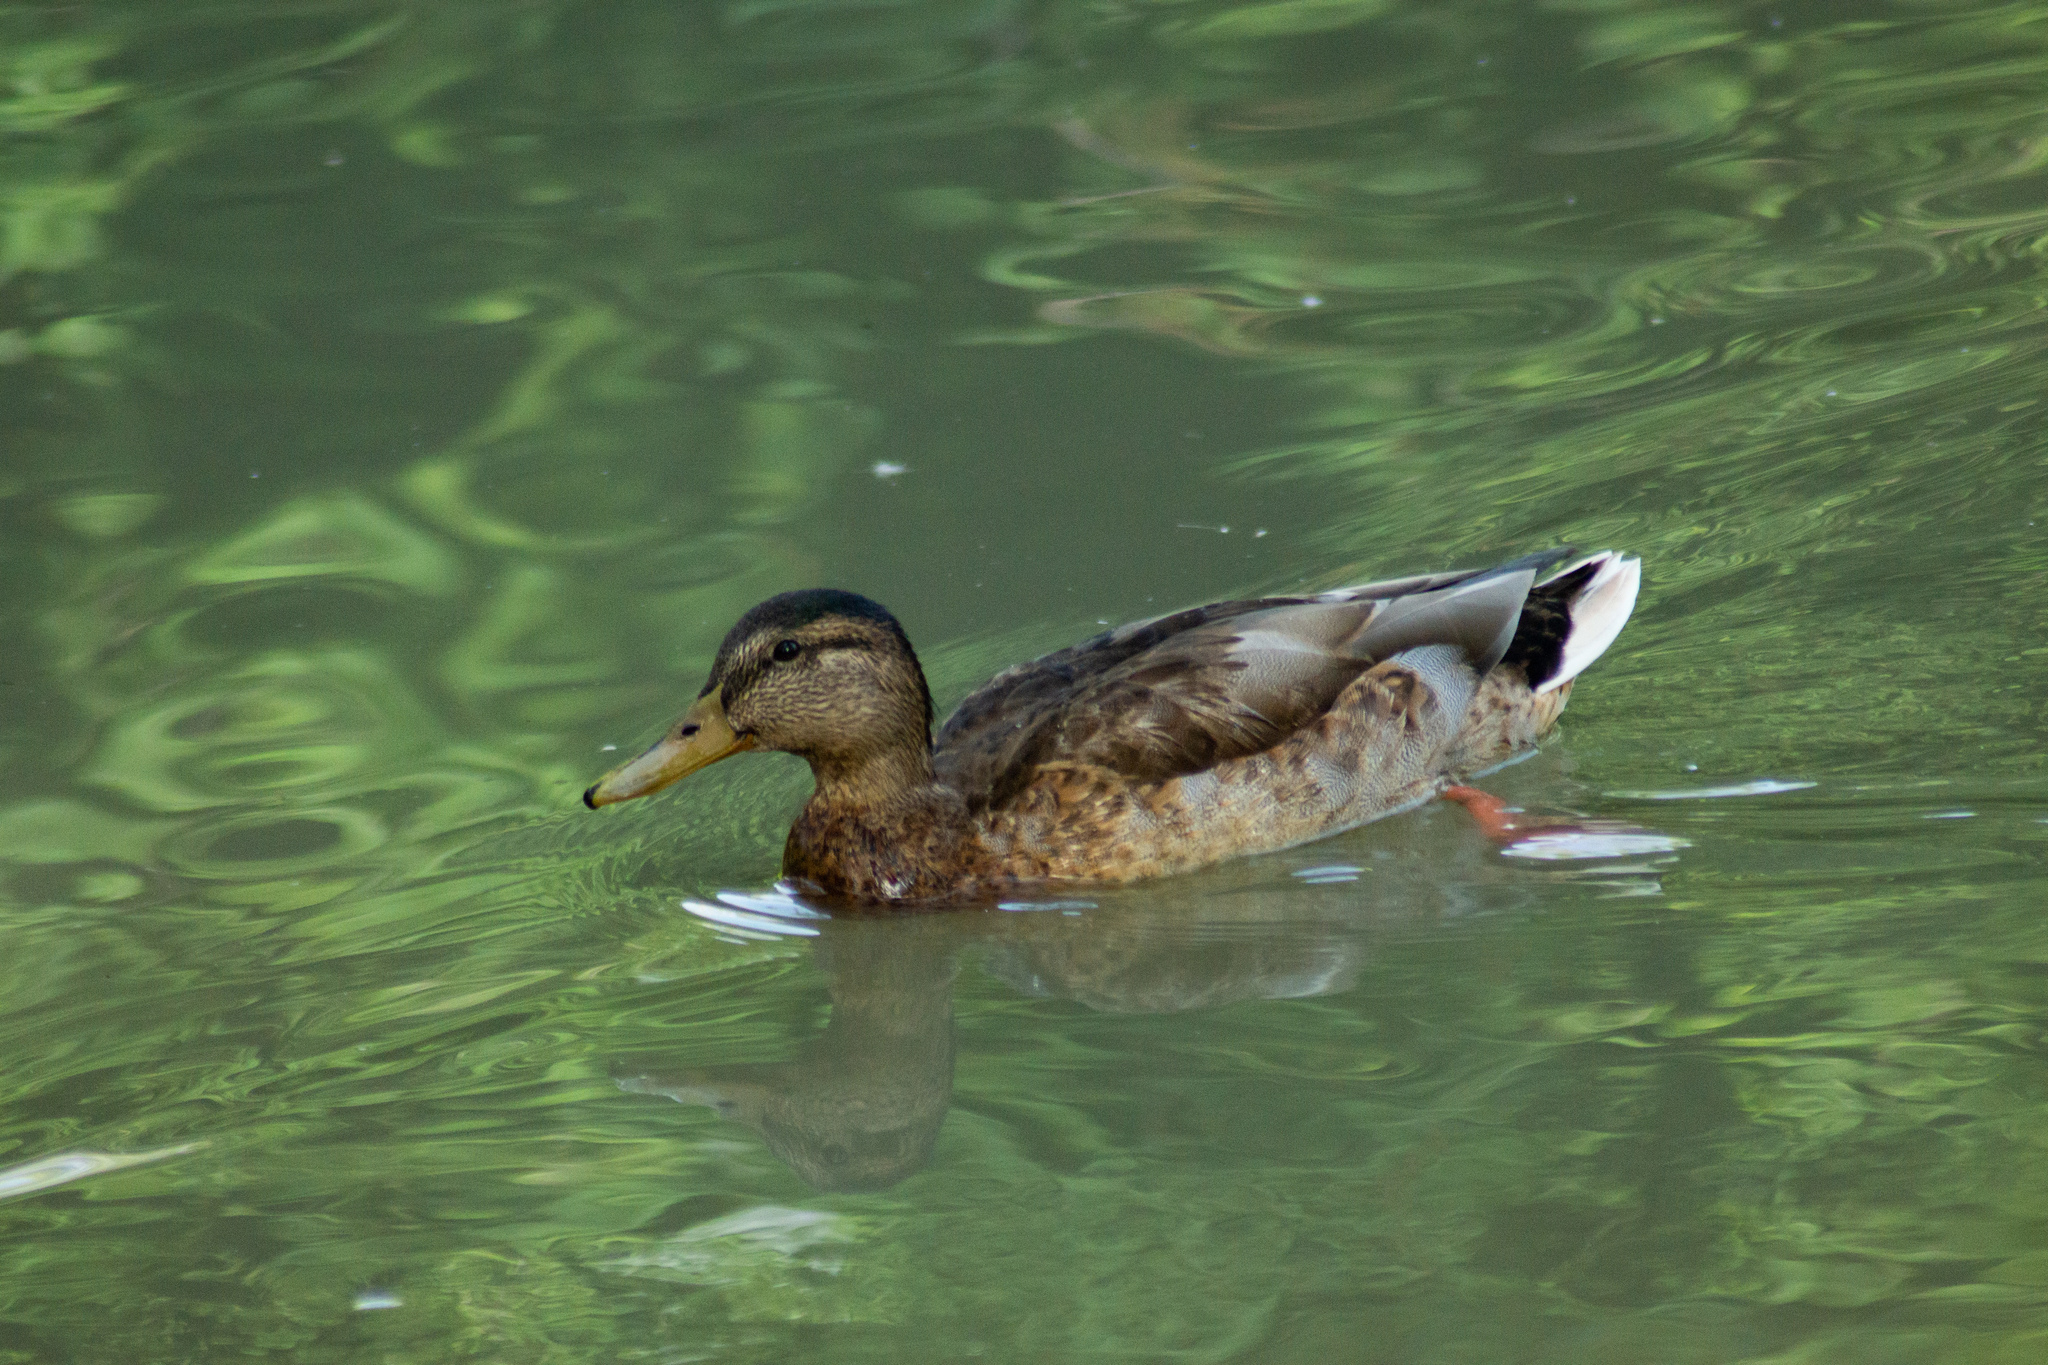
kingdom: Animalia
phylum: Chordata
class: Aves
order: Anseriformes
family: Anatidae
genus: Anas
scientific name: Anas platyrhynchos
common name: Mallard
